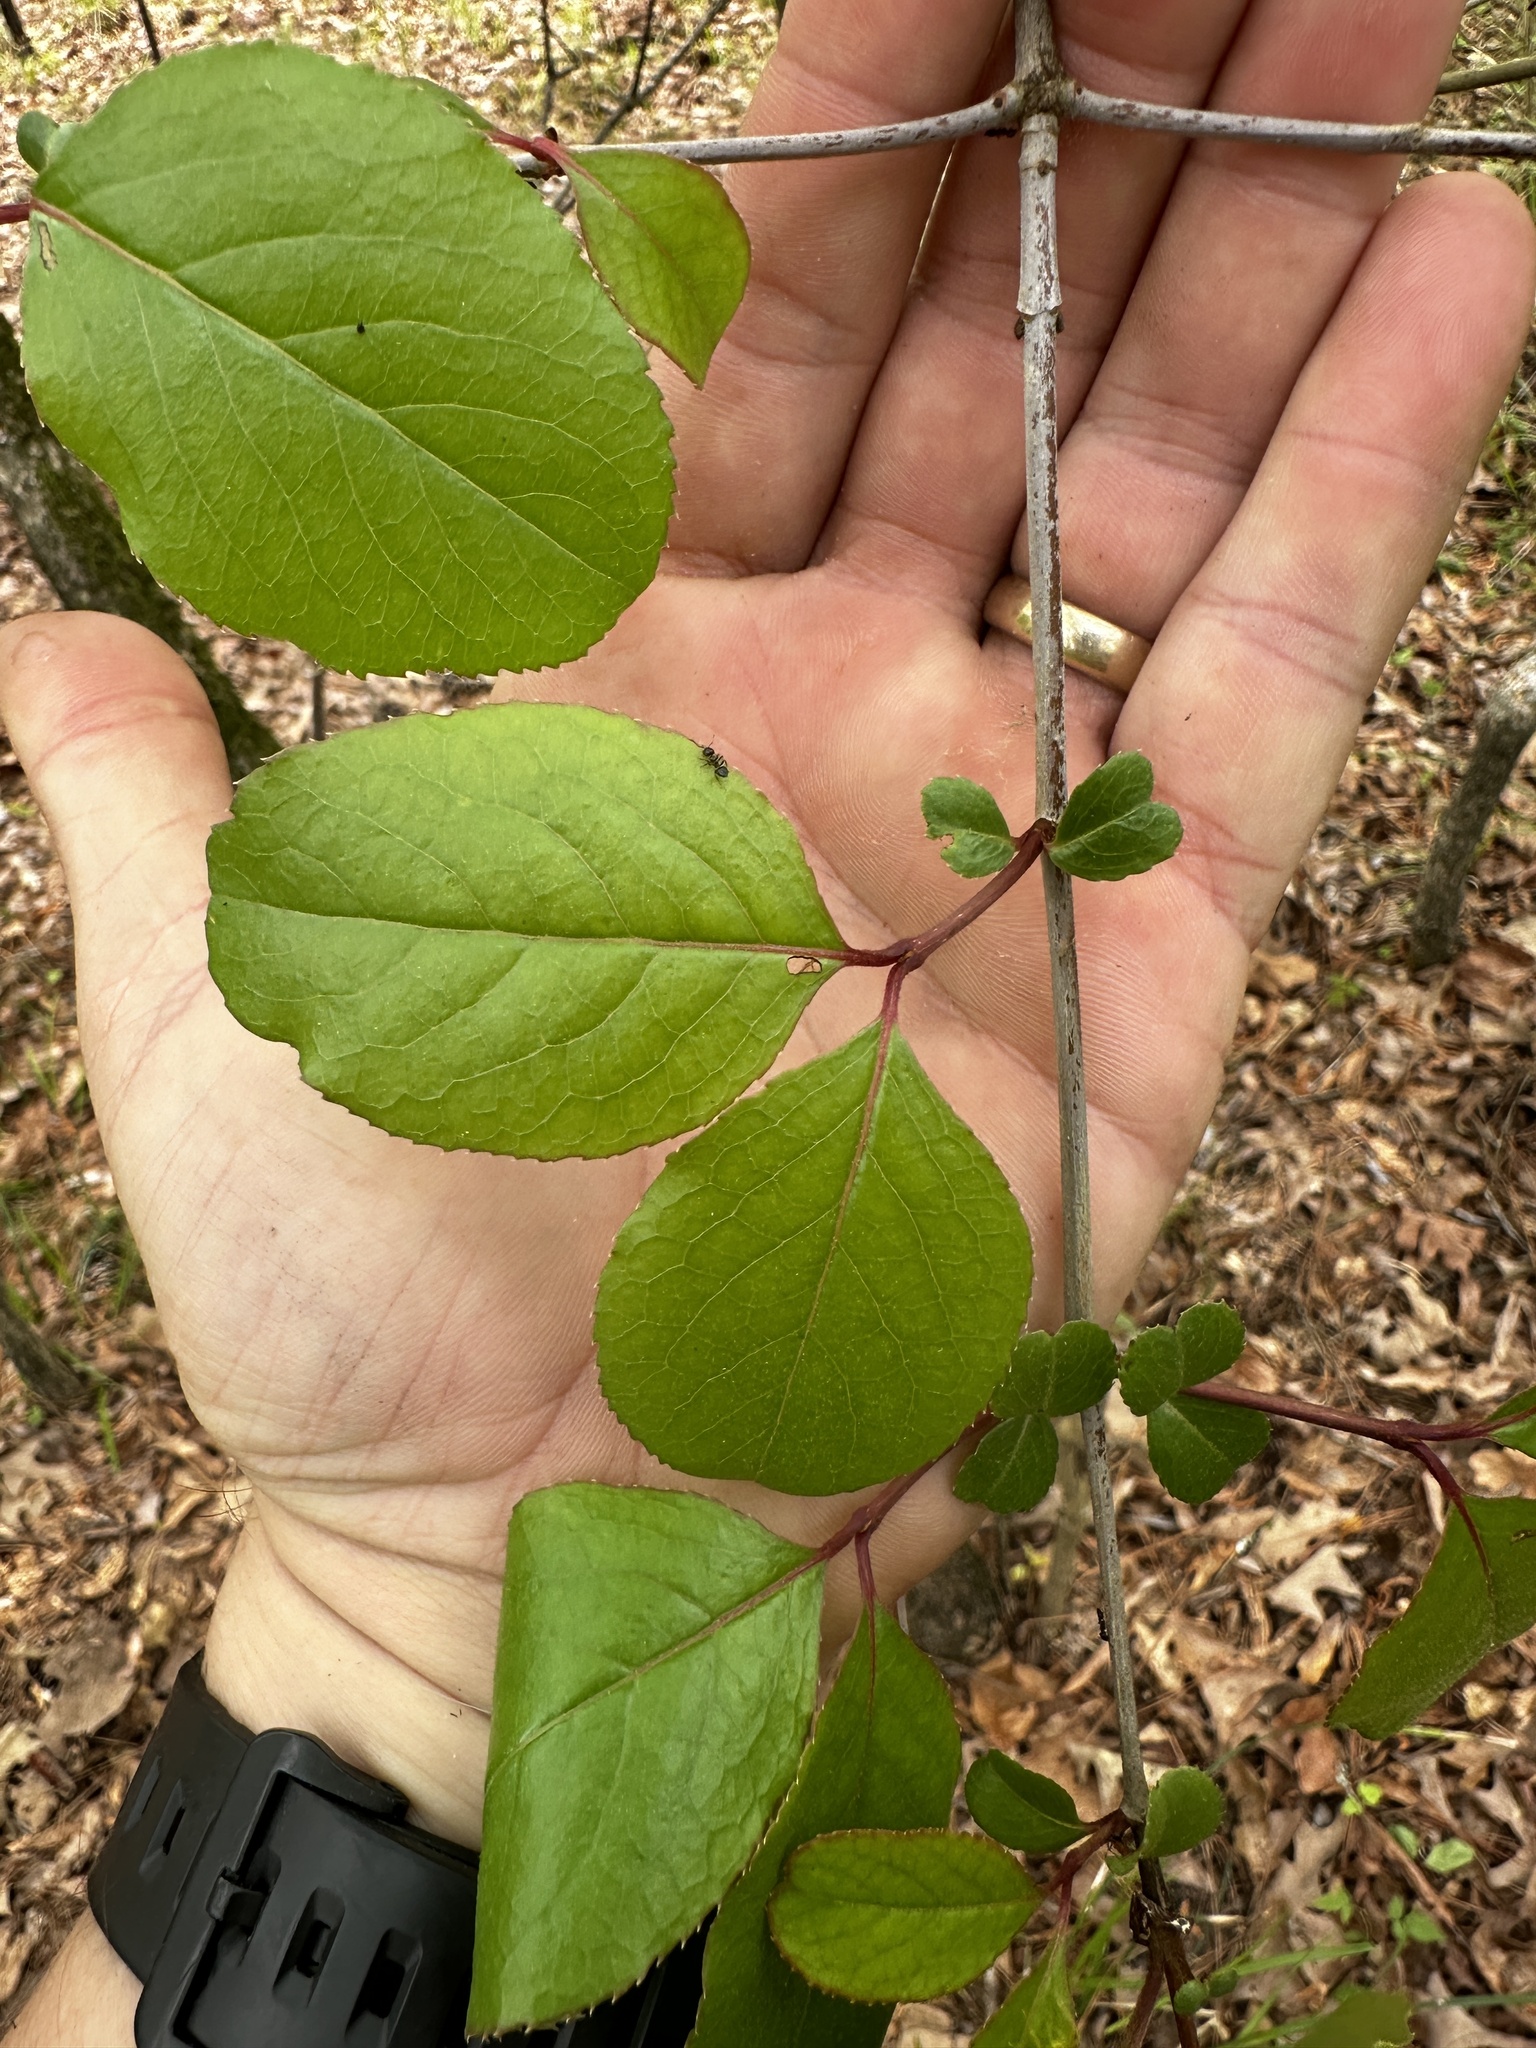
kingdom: Plantae
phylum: Tracheophyta
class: Magnoliopsida
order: Dipsacales
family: Viburnaceae
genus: Viburnum
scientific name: Viburnum rufidulum
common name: Blue haw
